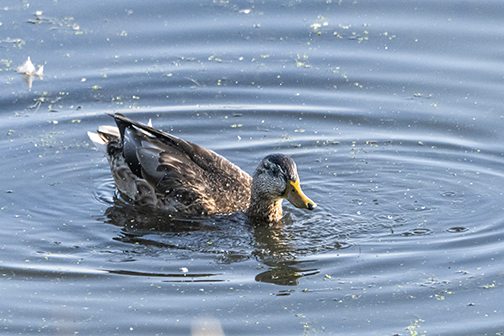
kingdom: Animalia
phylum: Chordata
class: Aves
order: Anseriformes
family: Anatidae
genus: Anas
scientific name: Anas platyrhynchos
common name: Mallard
